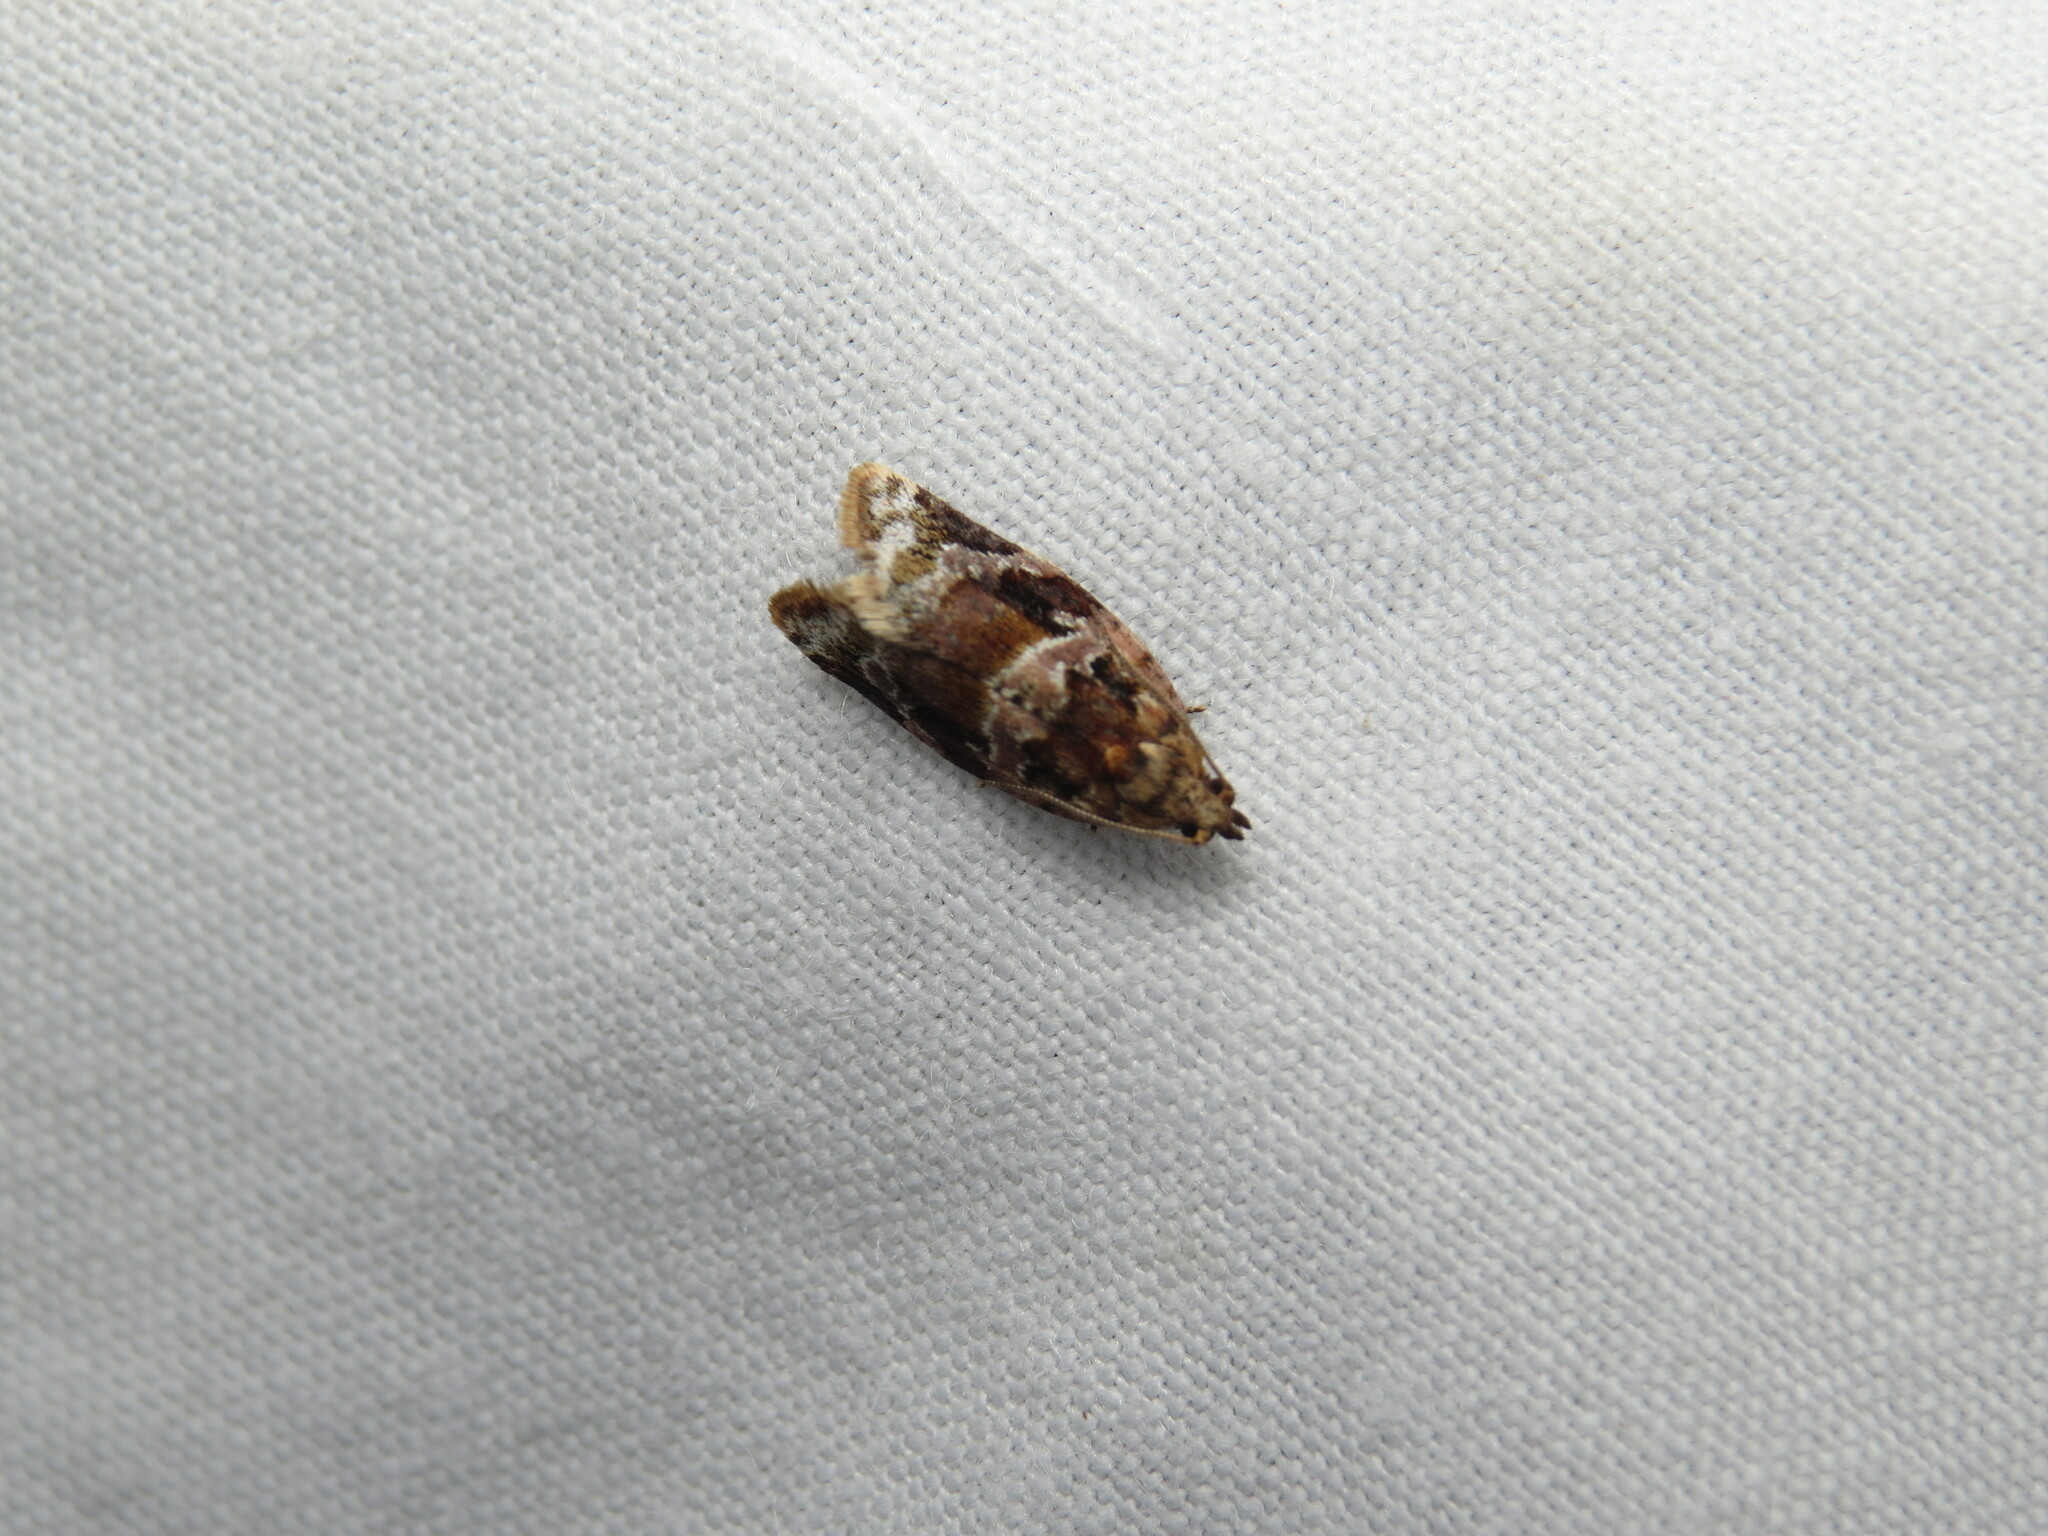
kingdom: Animalia
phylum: Arthropoda
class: Insecta
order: Lepidoptera
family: Tortricidae
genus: Argyrotaenia
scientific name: Argyrotaenia velutinana
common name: Red-banded leafroller moth
